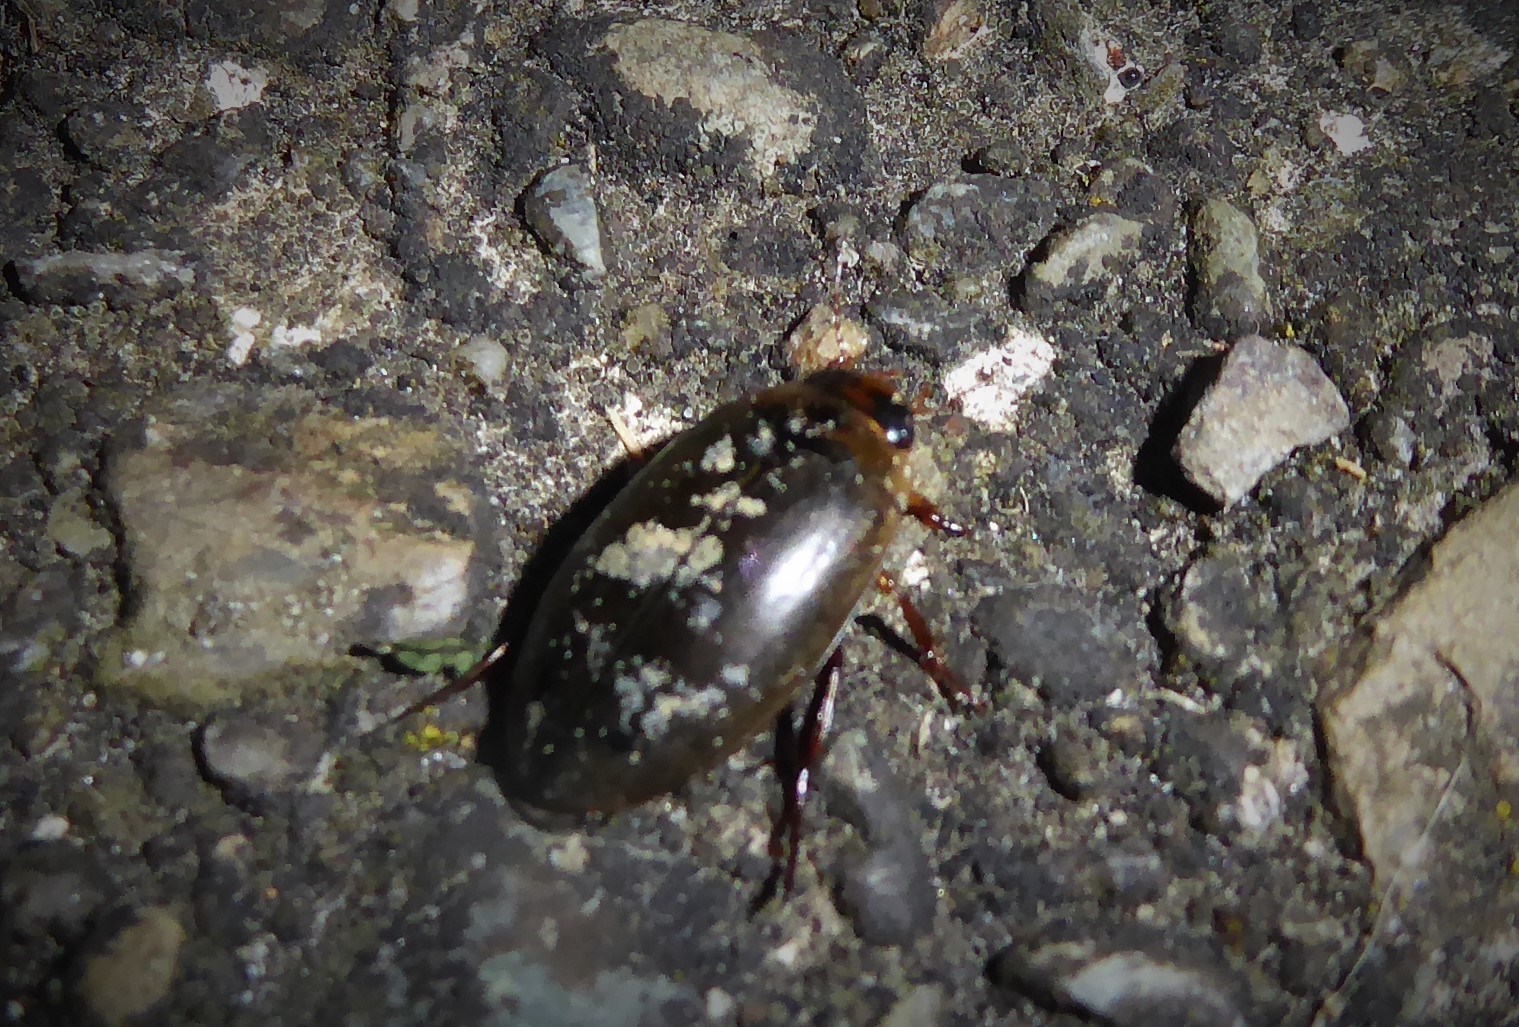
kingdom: Animalia
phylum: Arthropoda
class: Insecta
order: Coleoptera
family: Dytiscidae
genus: Rhantus
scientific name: Rhantus suturalis
